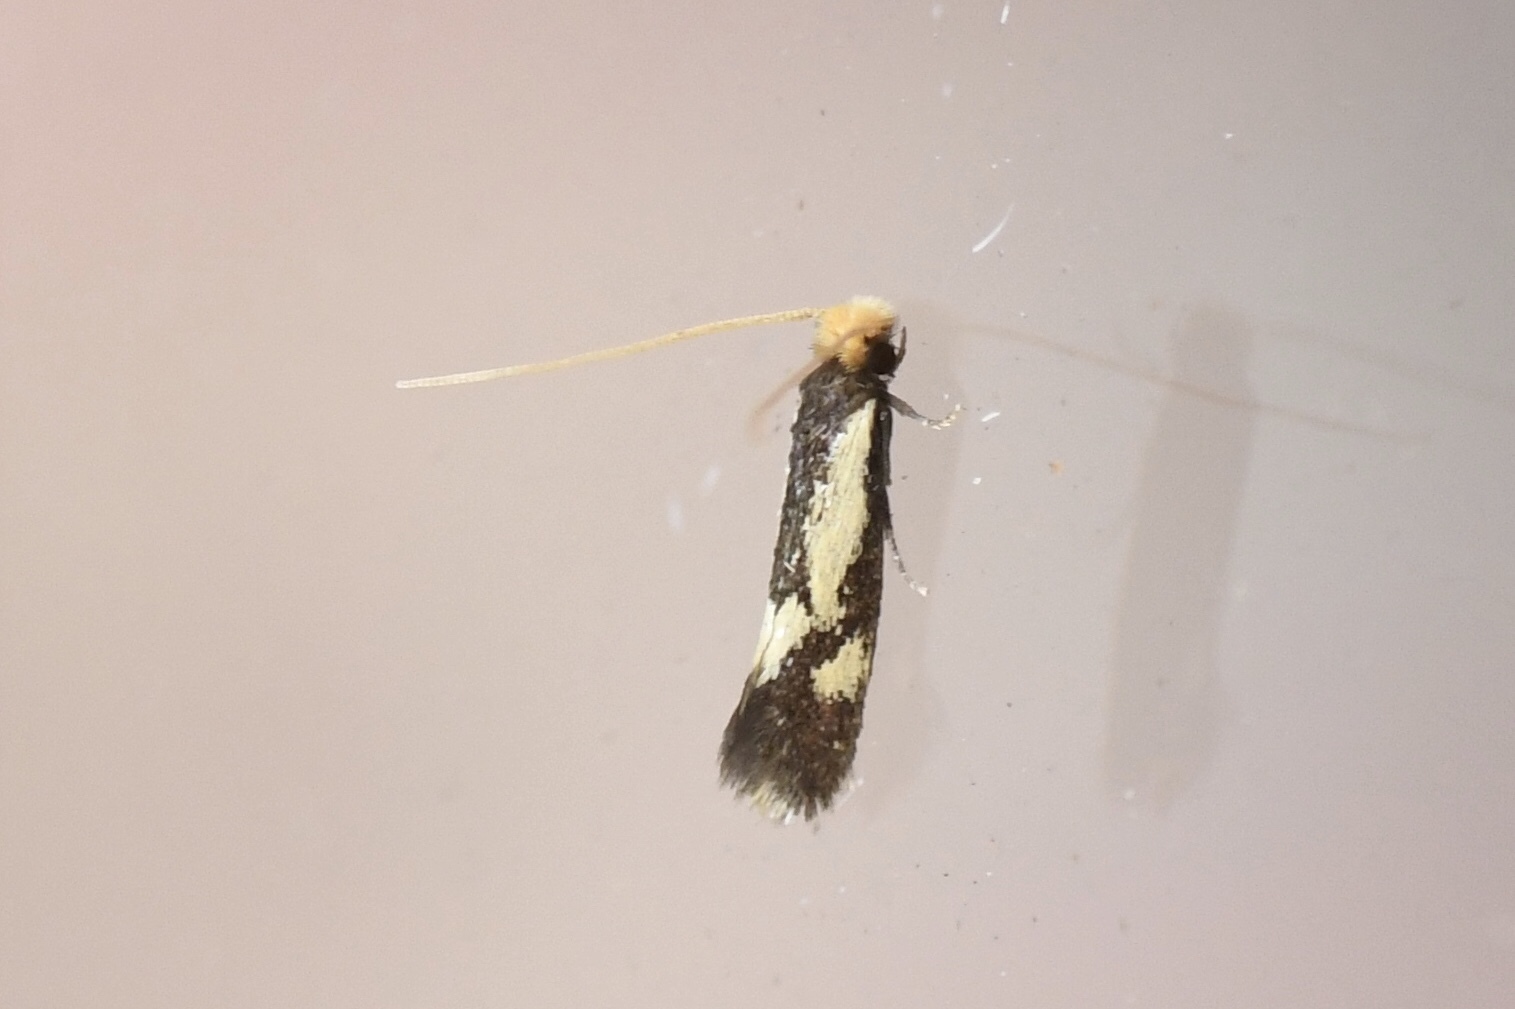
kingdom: Animalia
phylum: Arthropoda
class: Insecta
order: Lepidoptera
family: Meessiidae
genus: Isocorypha
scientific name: Isocorypha mediostriatella
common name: Old gold isocorypha moth
